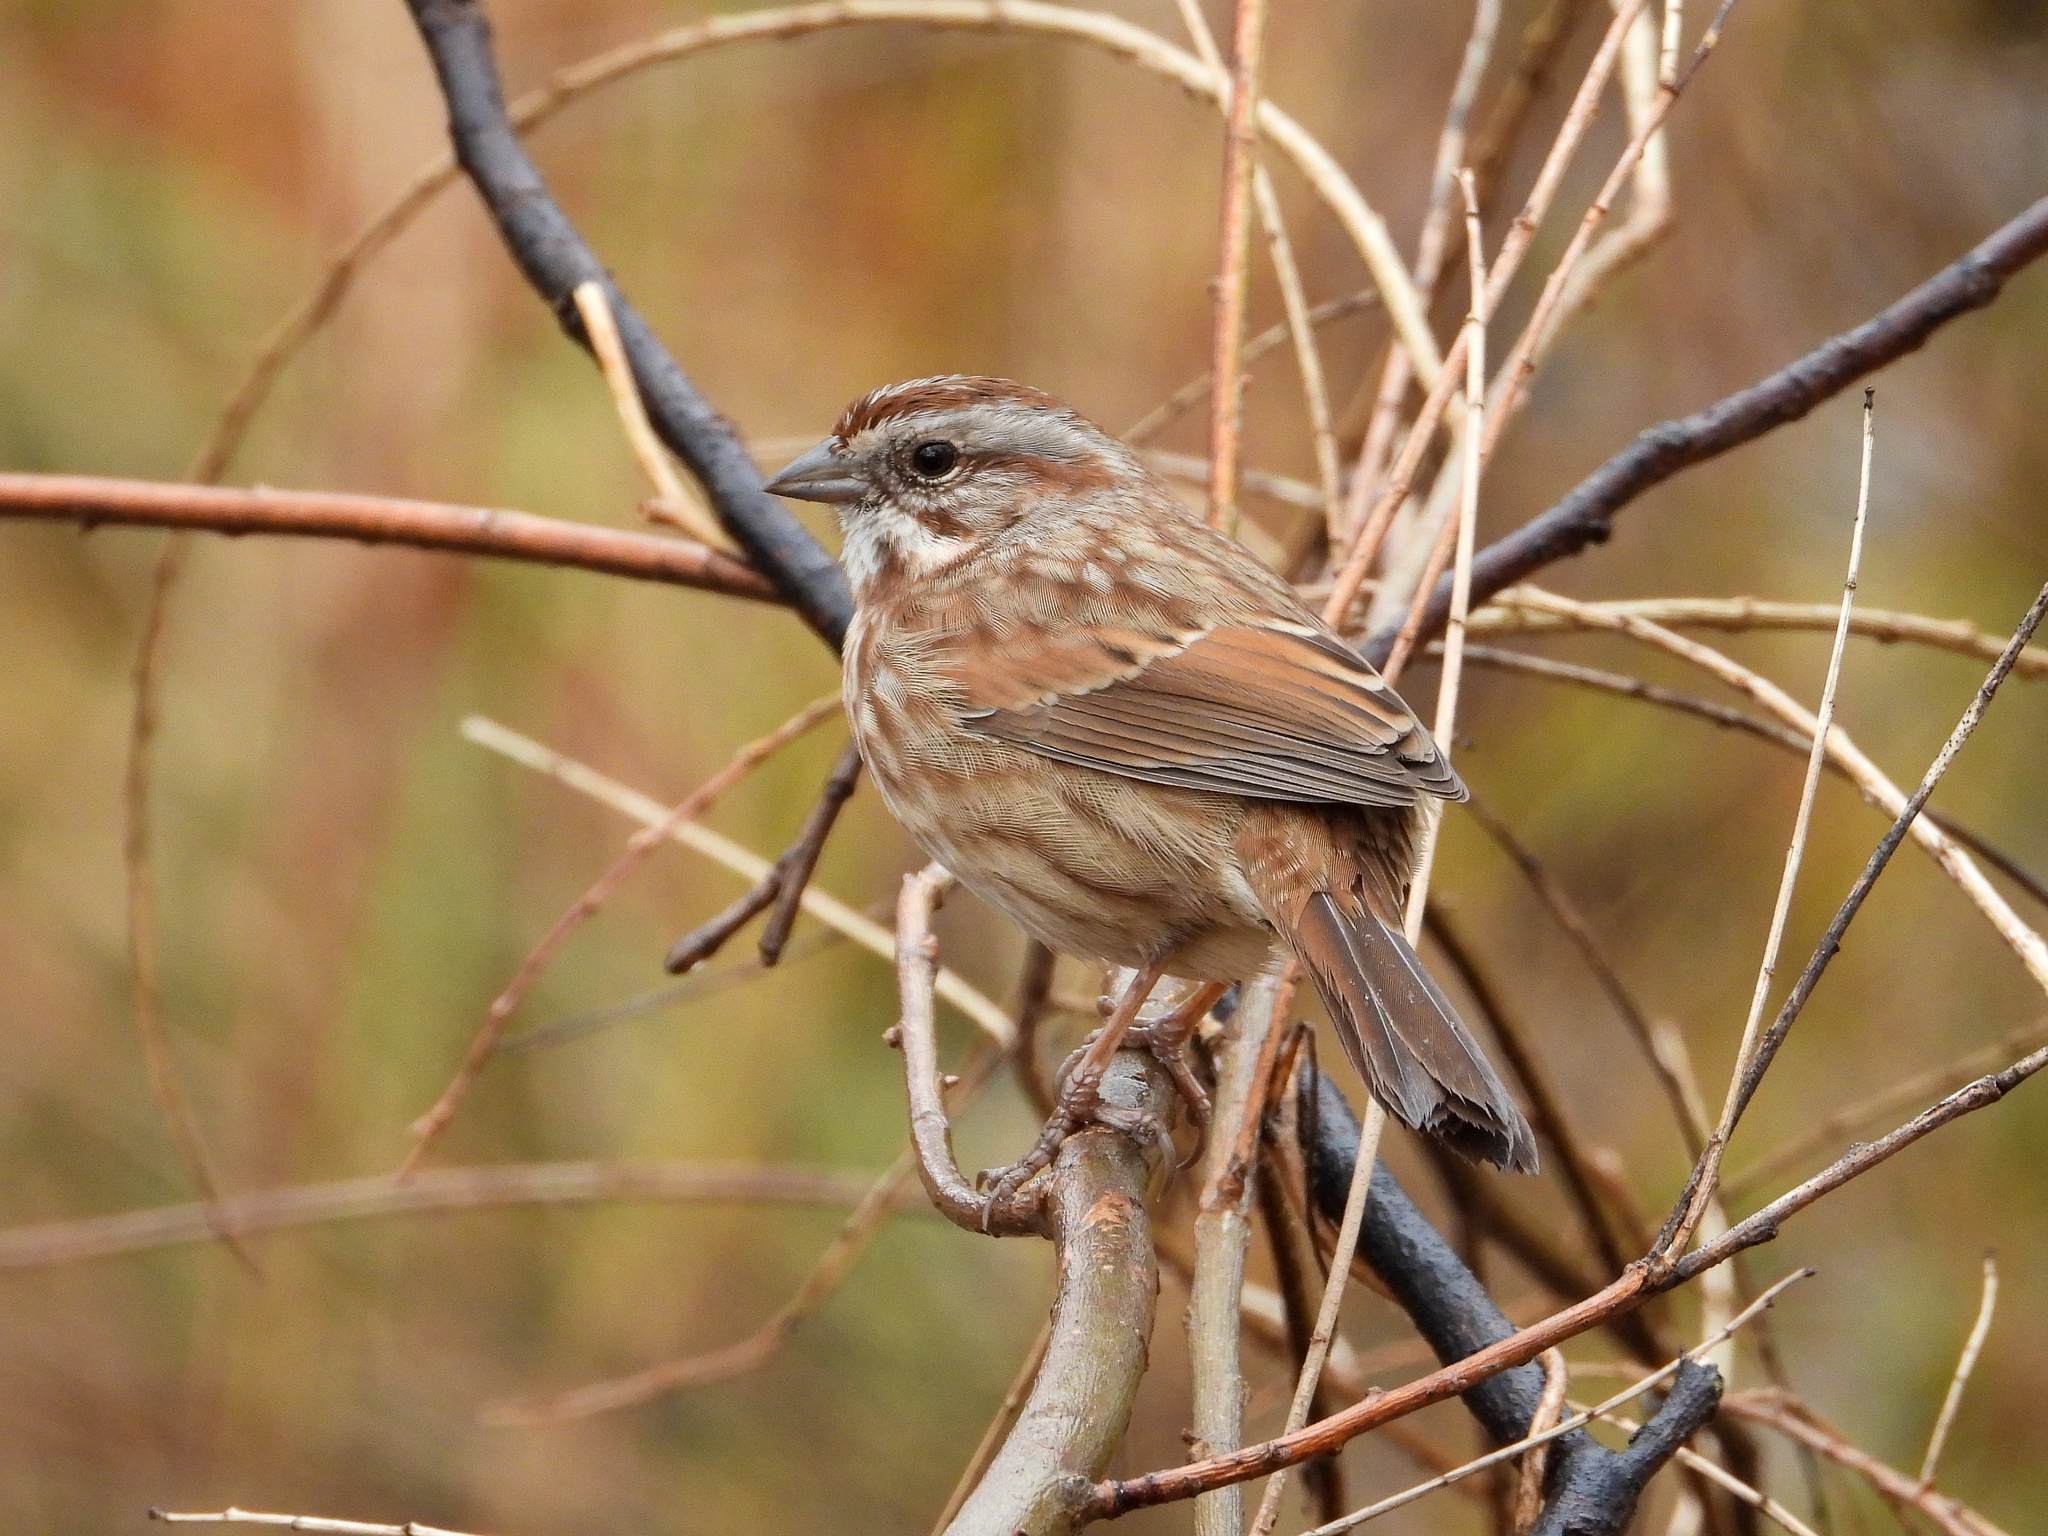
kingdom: Animalia
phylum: Chordata
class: Aves
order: Passeriformes
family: Passerellidae
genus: Melospiza
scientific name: Melospiza melodia
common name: Song sparrow
